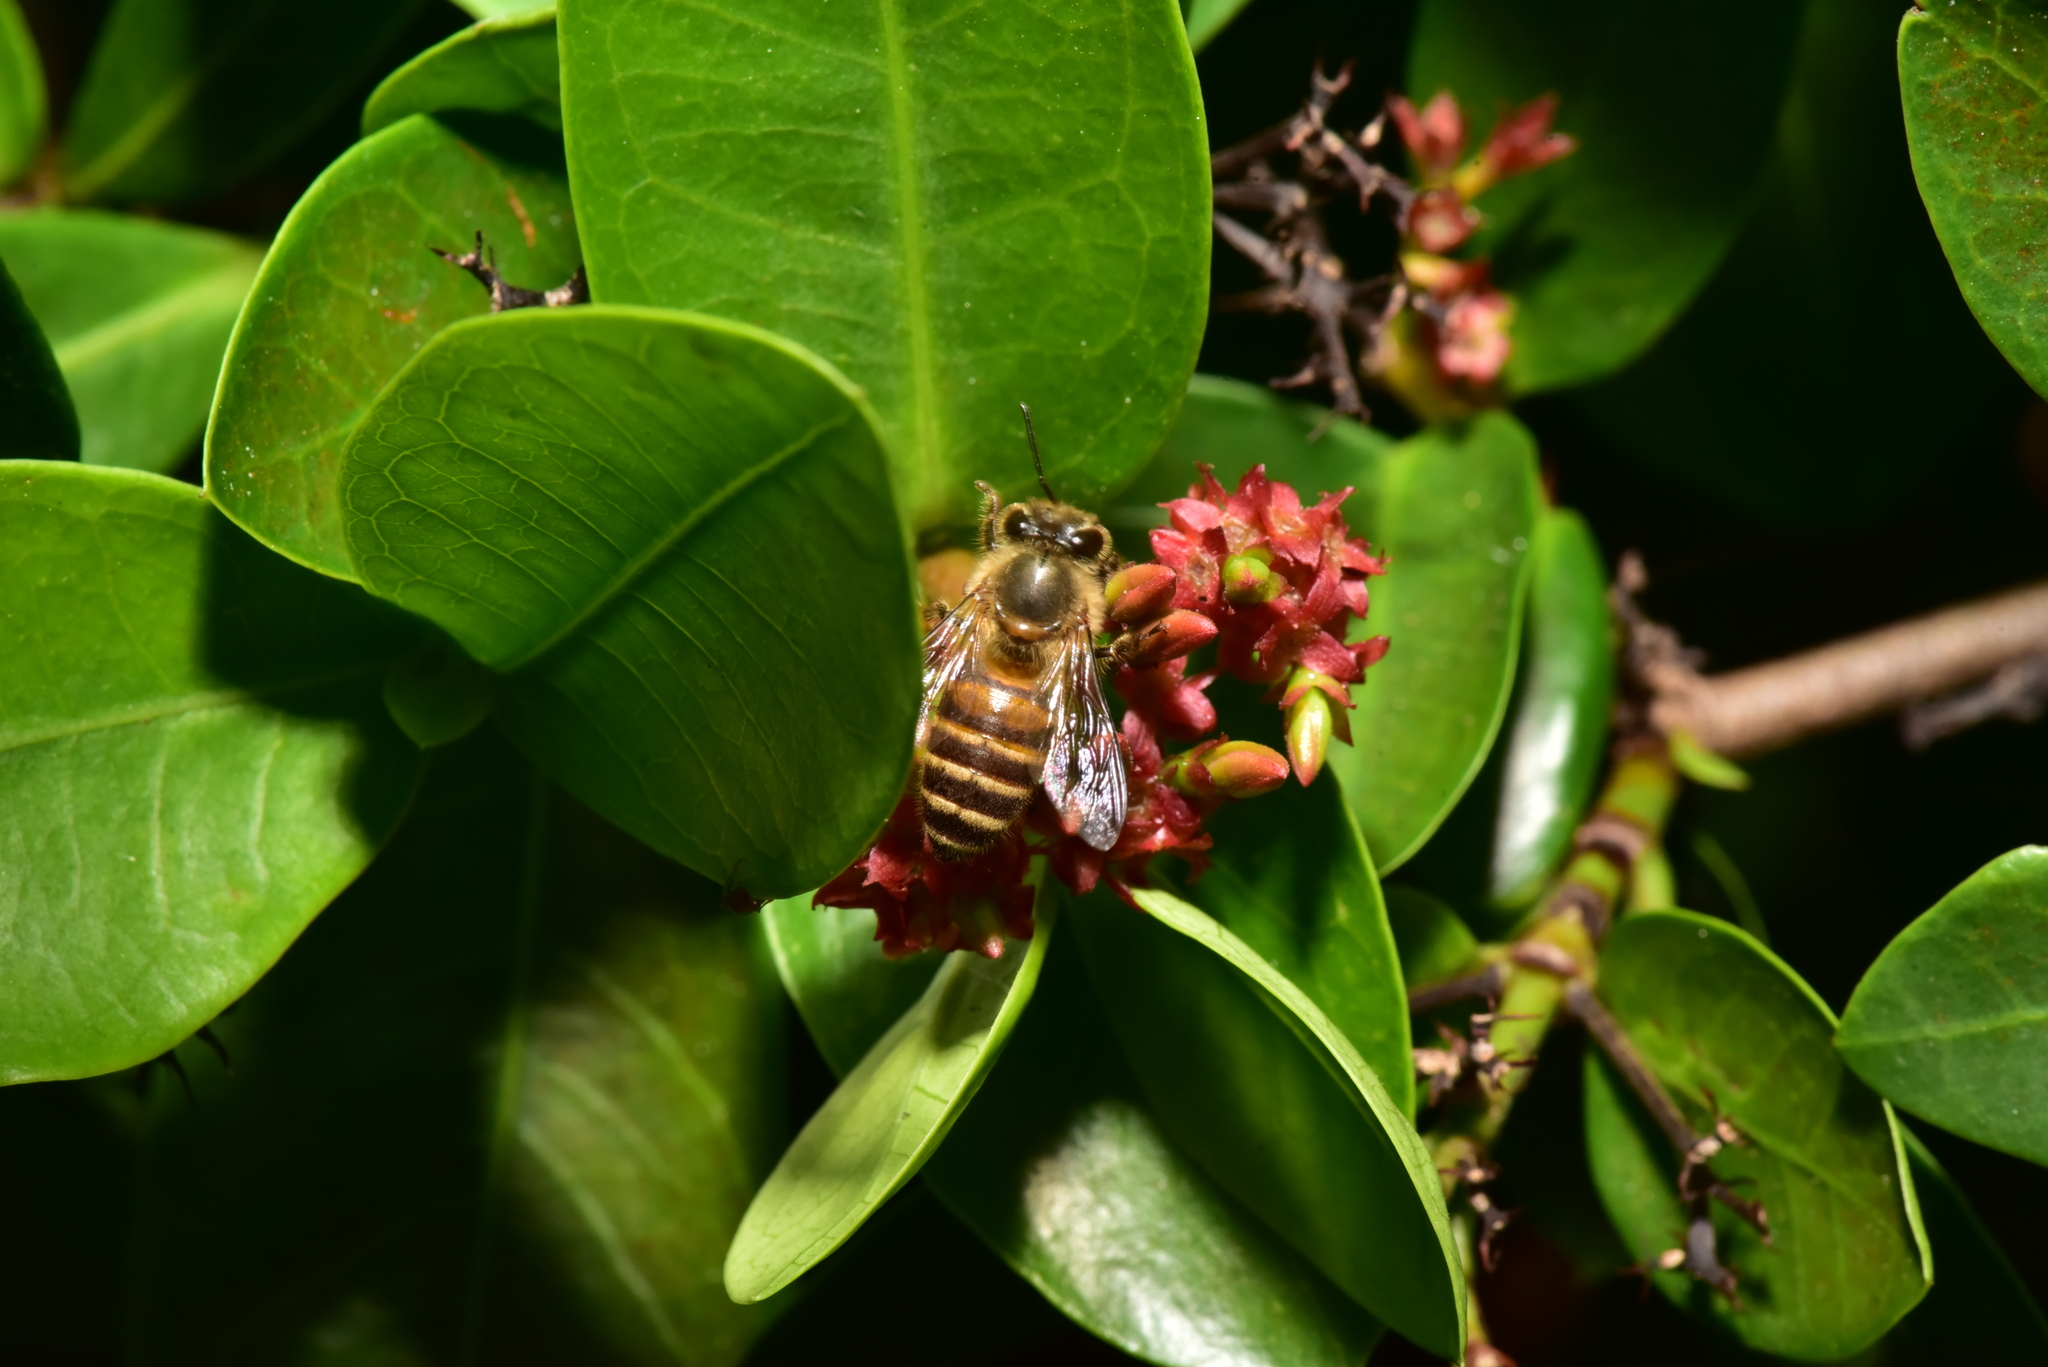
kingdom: Animalia
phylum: Arthropoda
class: Insecta
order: Hymenoptera
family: Apidae
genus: Apis
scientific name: Apis cerana
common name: Honey bee
